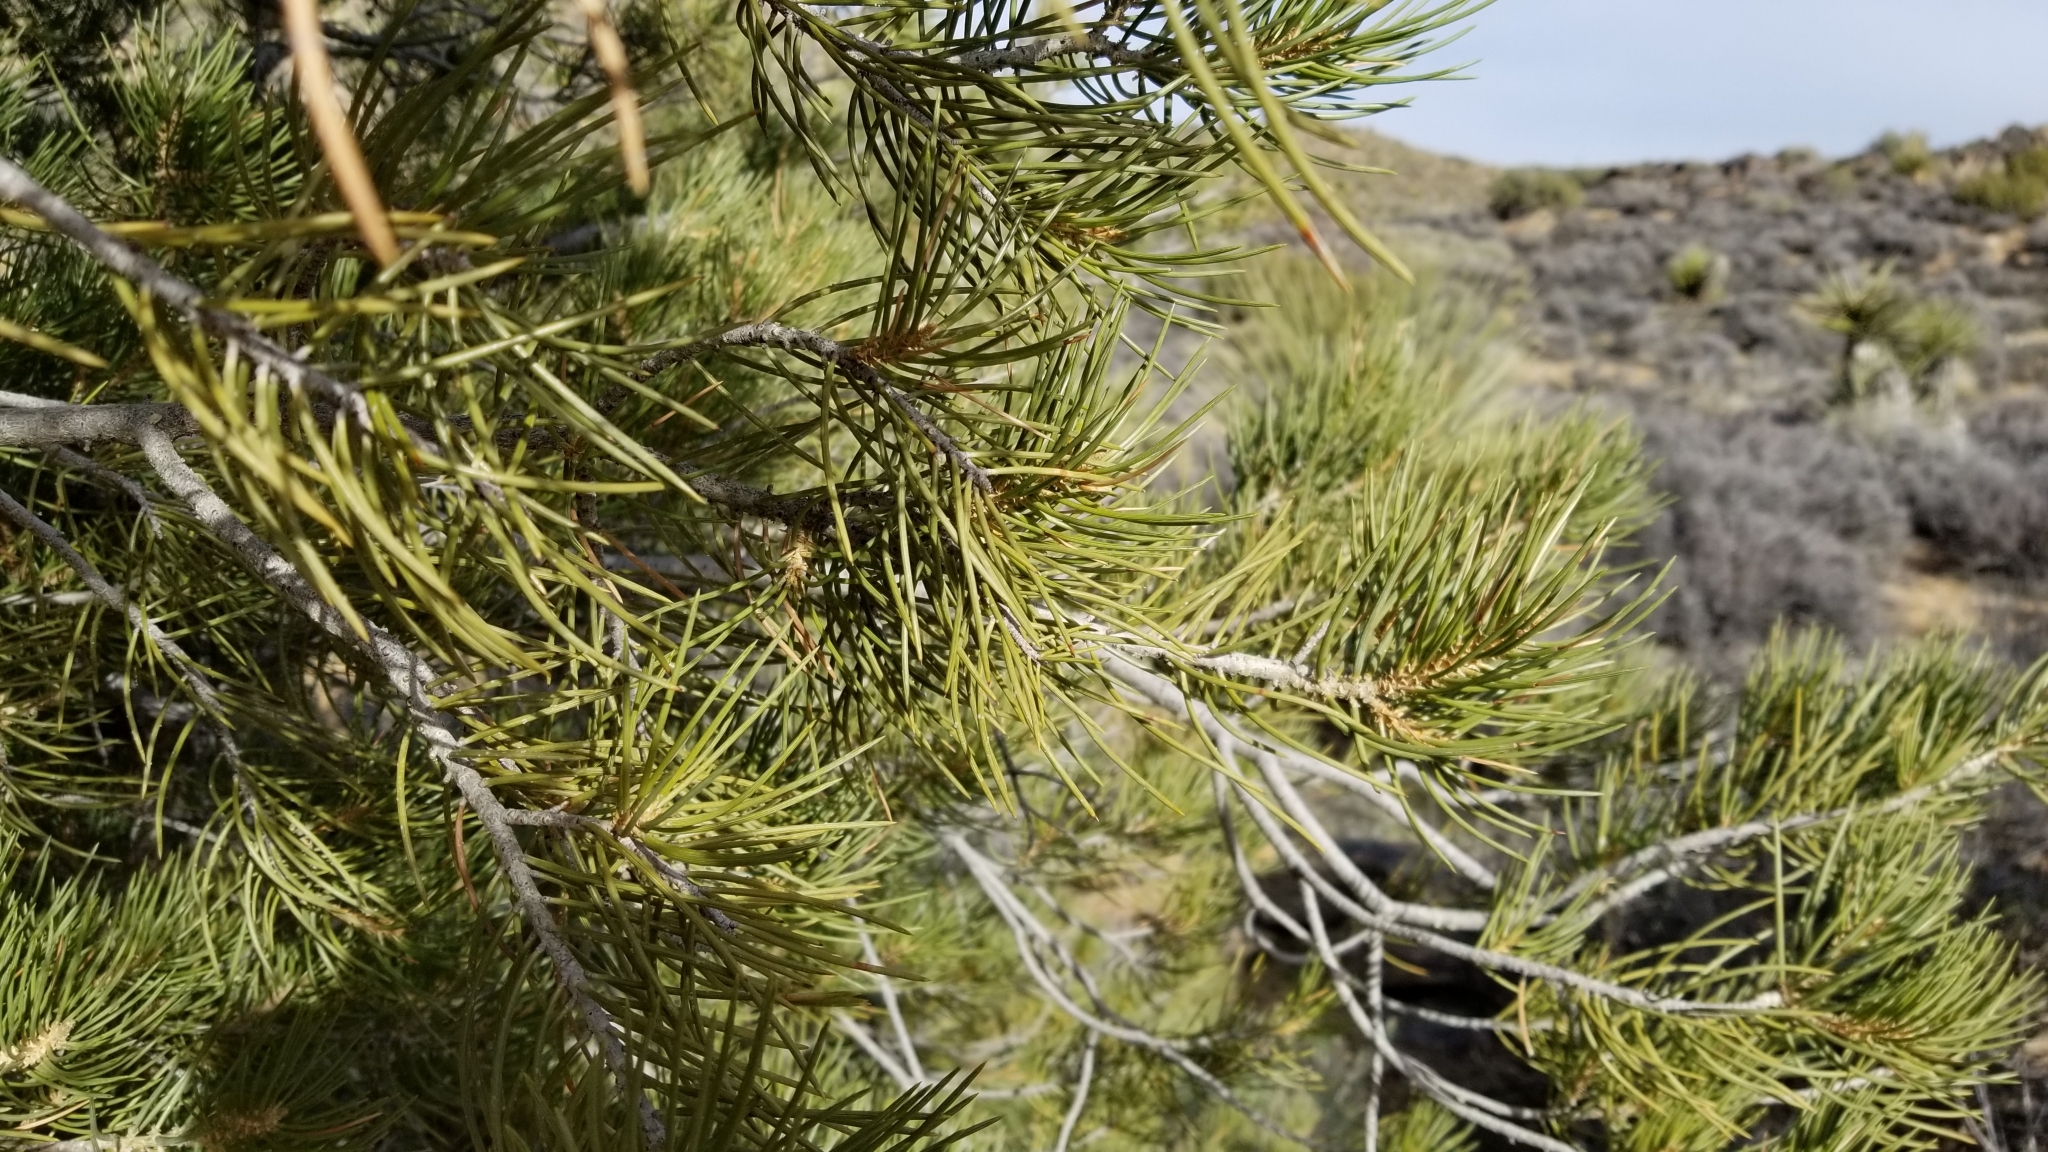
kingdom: Plantae
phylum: Tracheophyta
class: Pinopsida
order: Pinales
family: Pinaceae
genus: Pinus
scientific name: Pinus monophylla
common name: One-leaved nut pine
